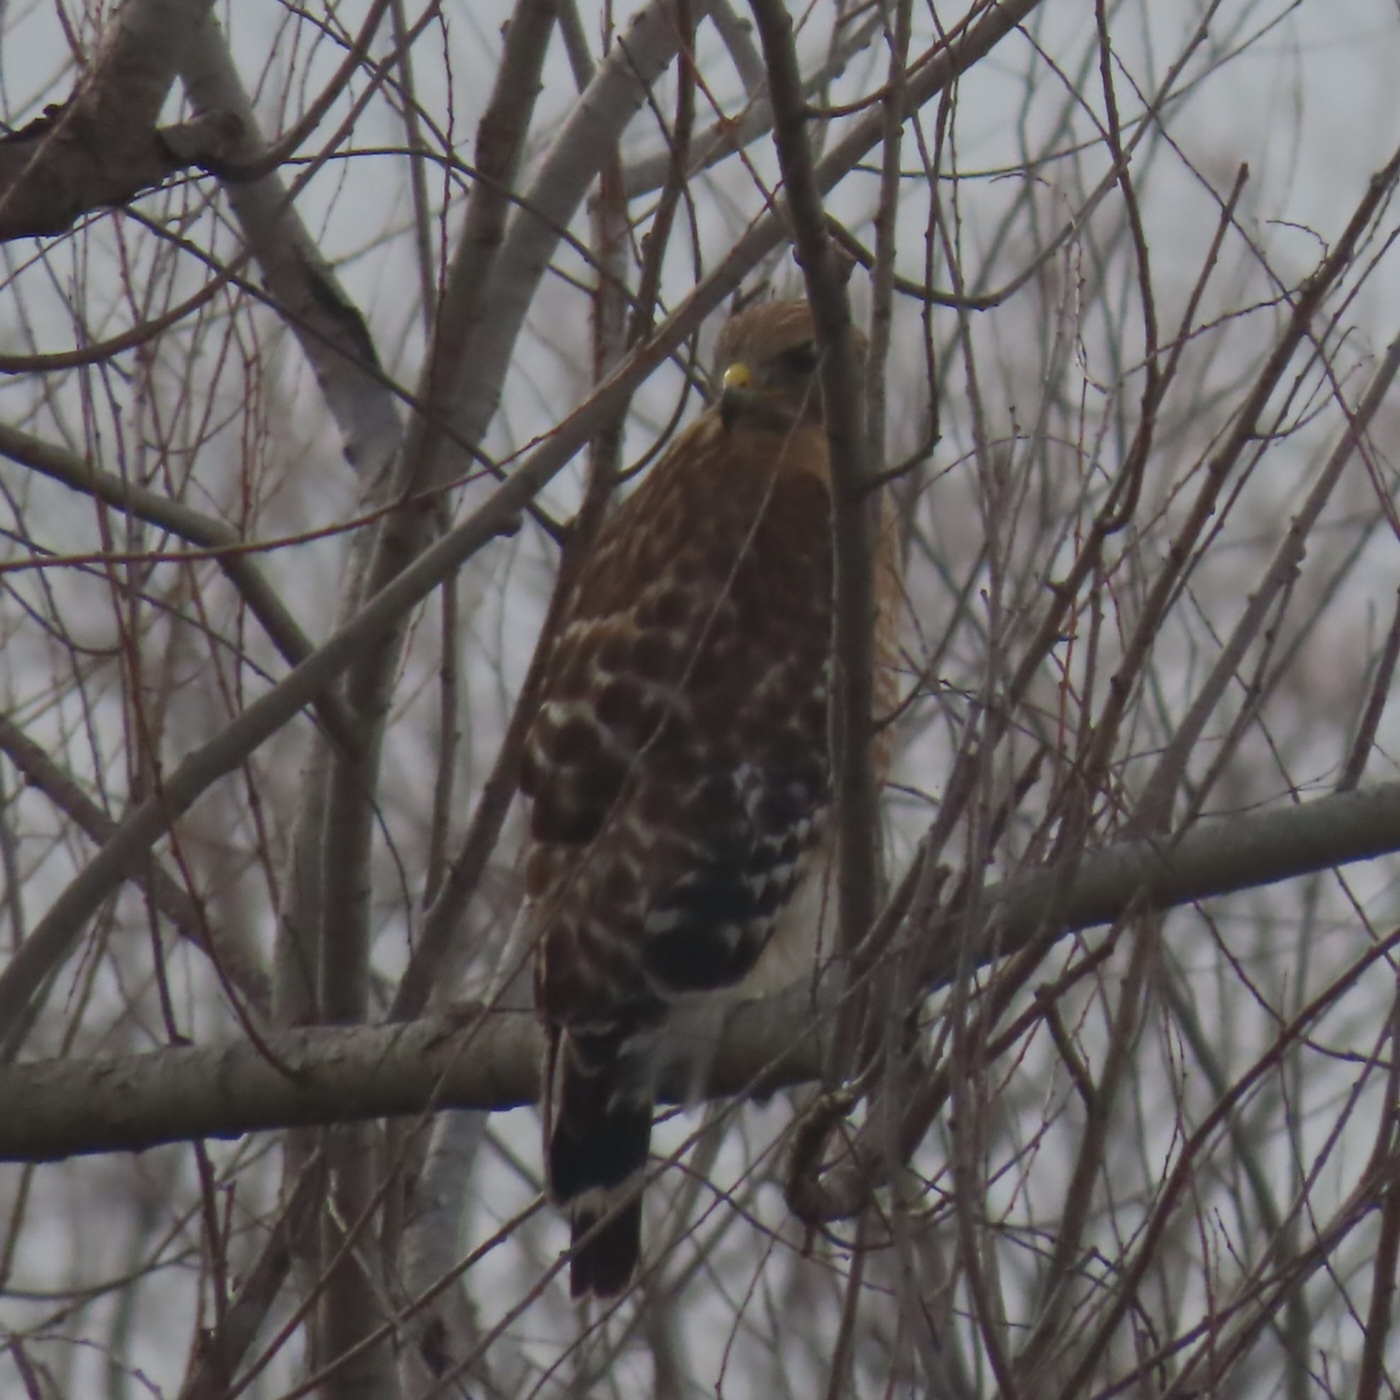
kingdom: Animalia
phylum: Chordata
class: Aves
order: Accipitriformes
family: Accipitridae
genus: Buteo
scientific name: Buteo lineatus
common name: Red-shouldered hawk
